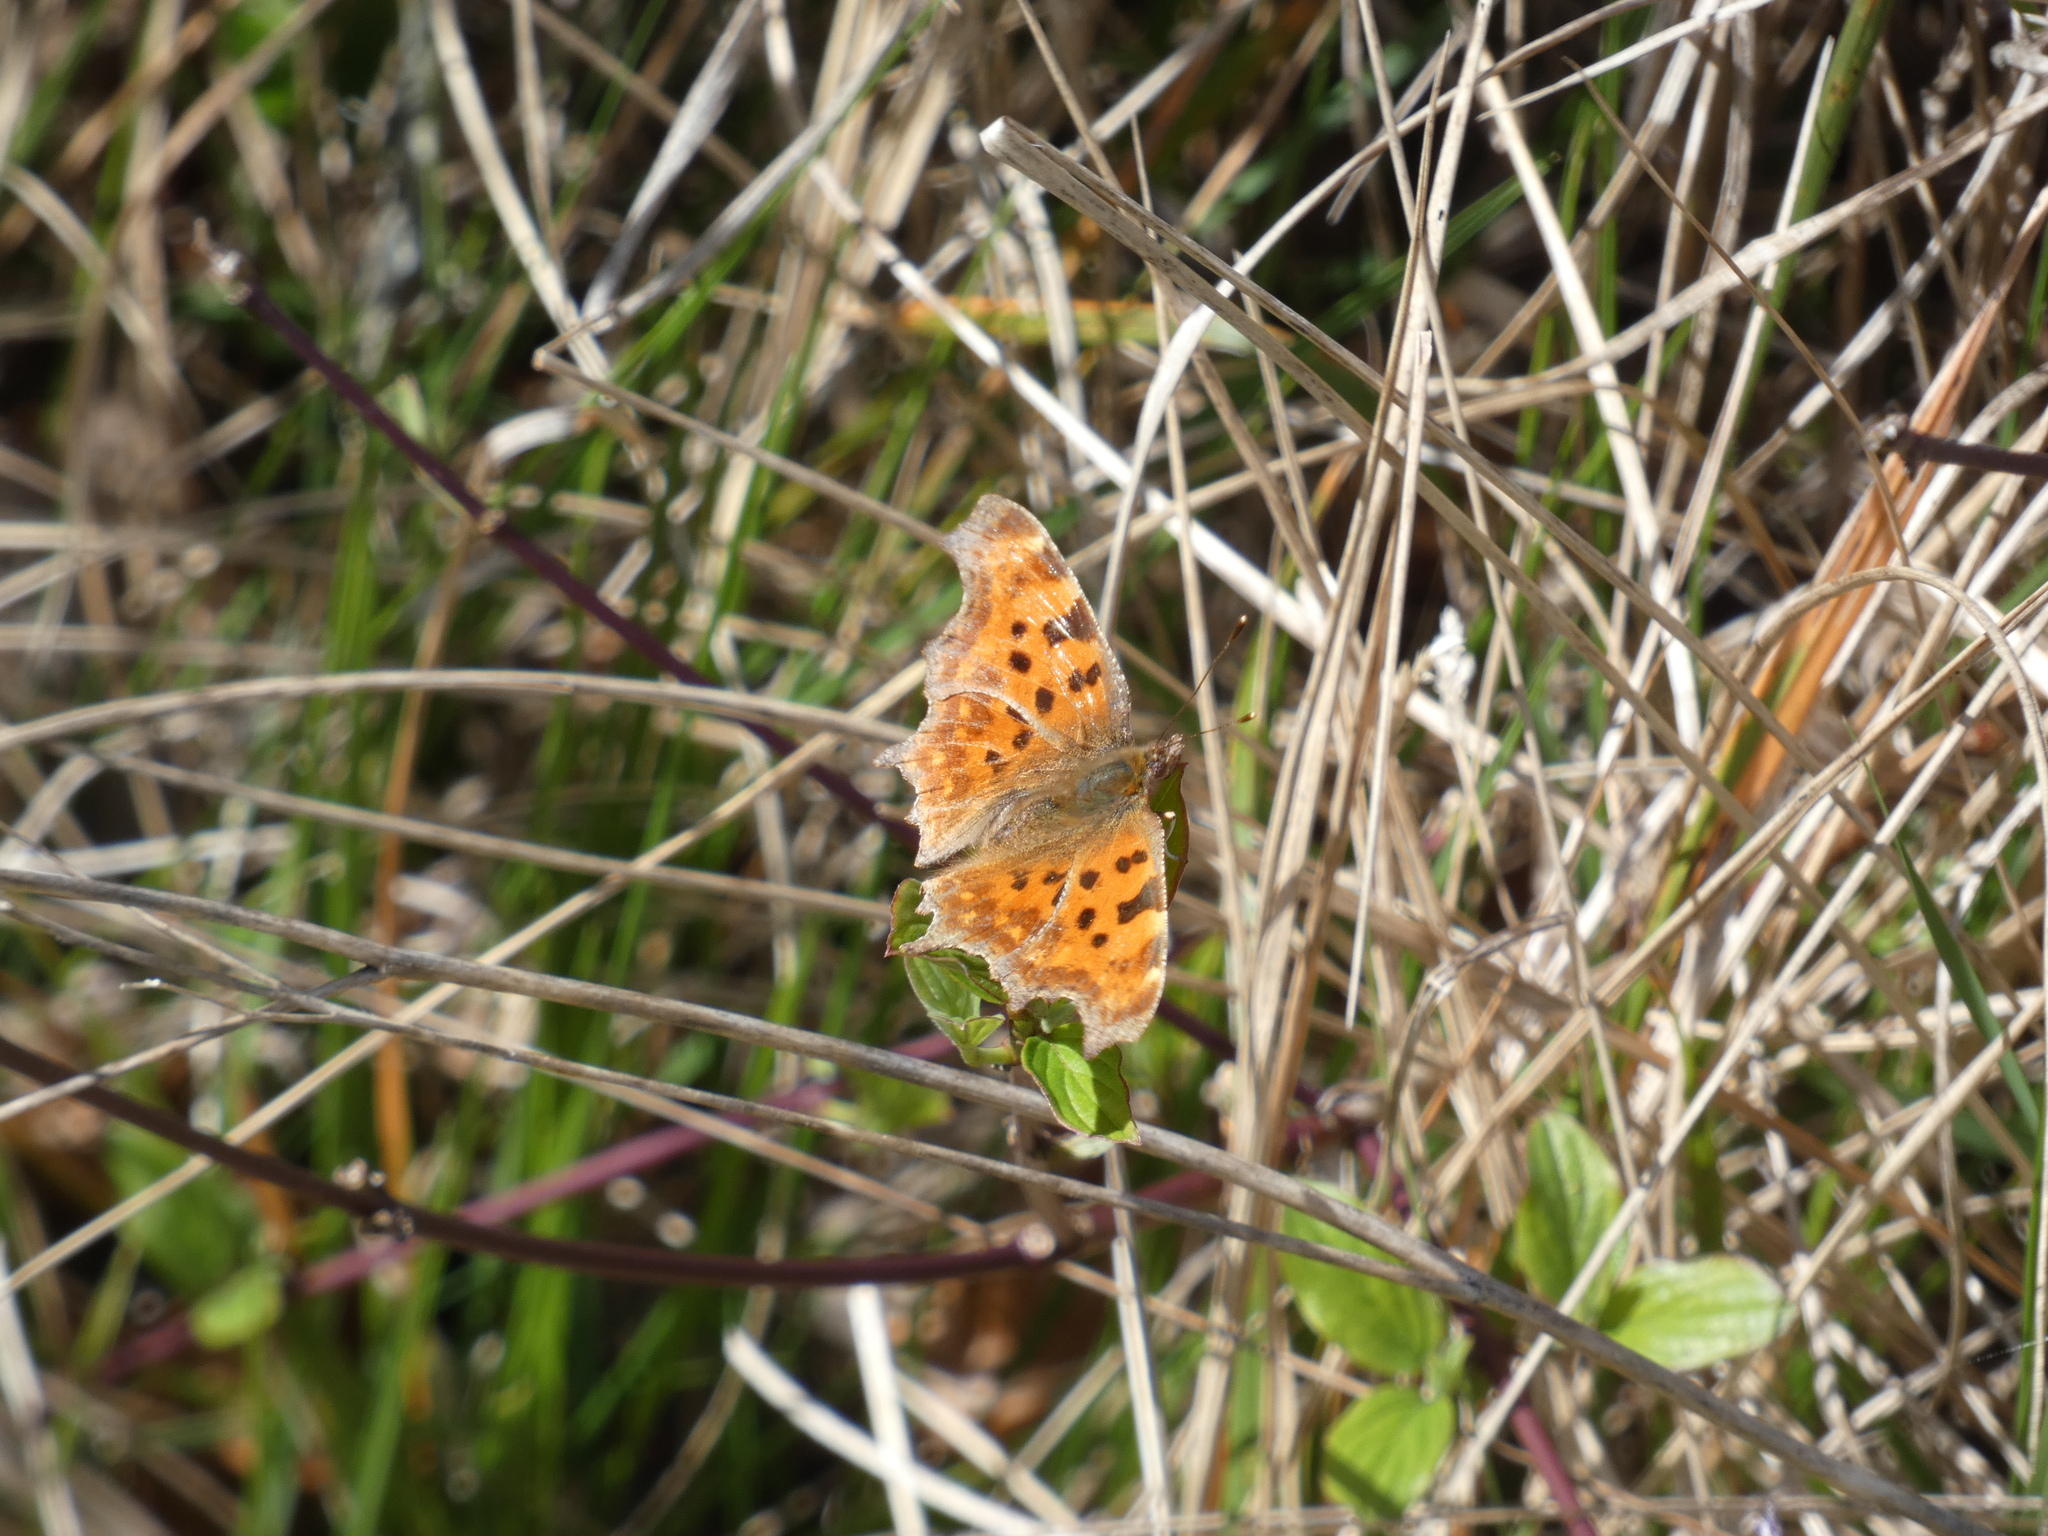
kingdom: Animalia
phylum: Arthropoda
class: Insecta
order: Lepidoptera
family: Nymphalidae
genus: Polygonia
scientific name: Polygonia c-album
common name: Comma
